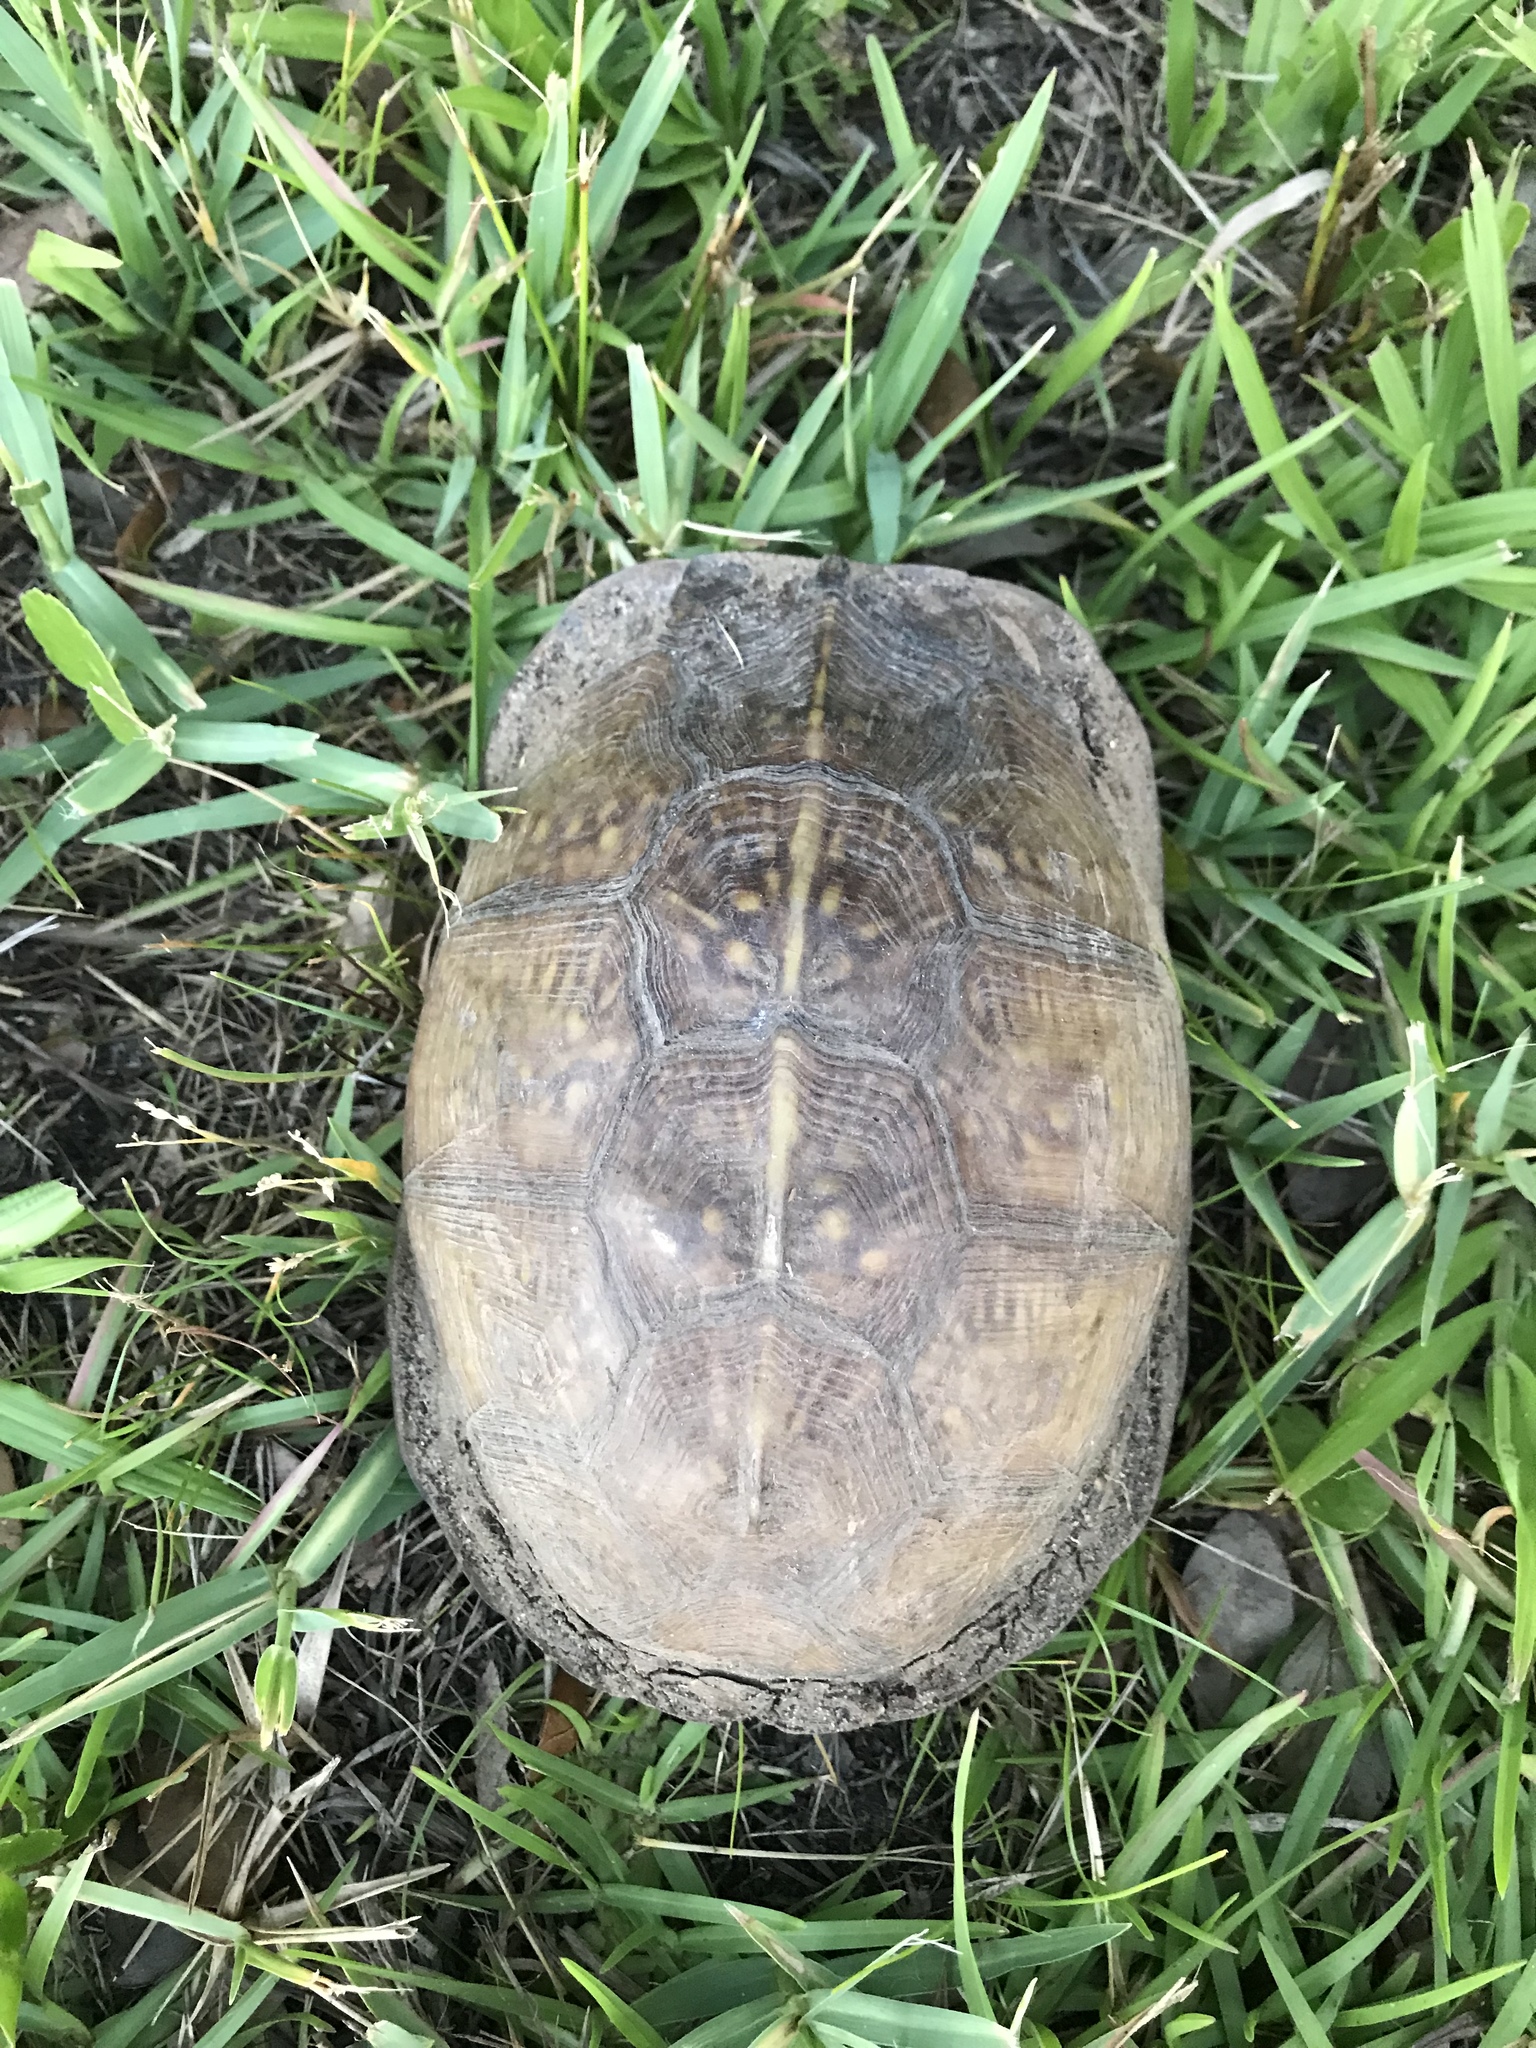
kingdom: Animalia
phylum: Chordata
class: Testudines
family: Emydidae
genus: Terrapene
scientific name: Terrapene carolina
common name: Common box turtle
